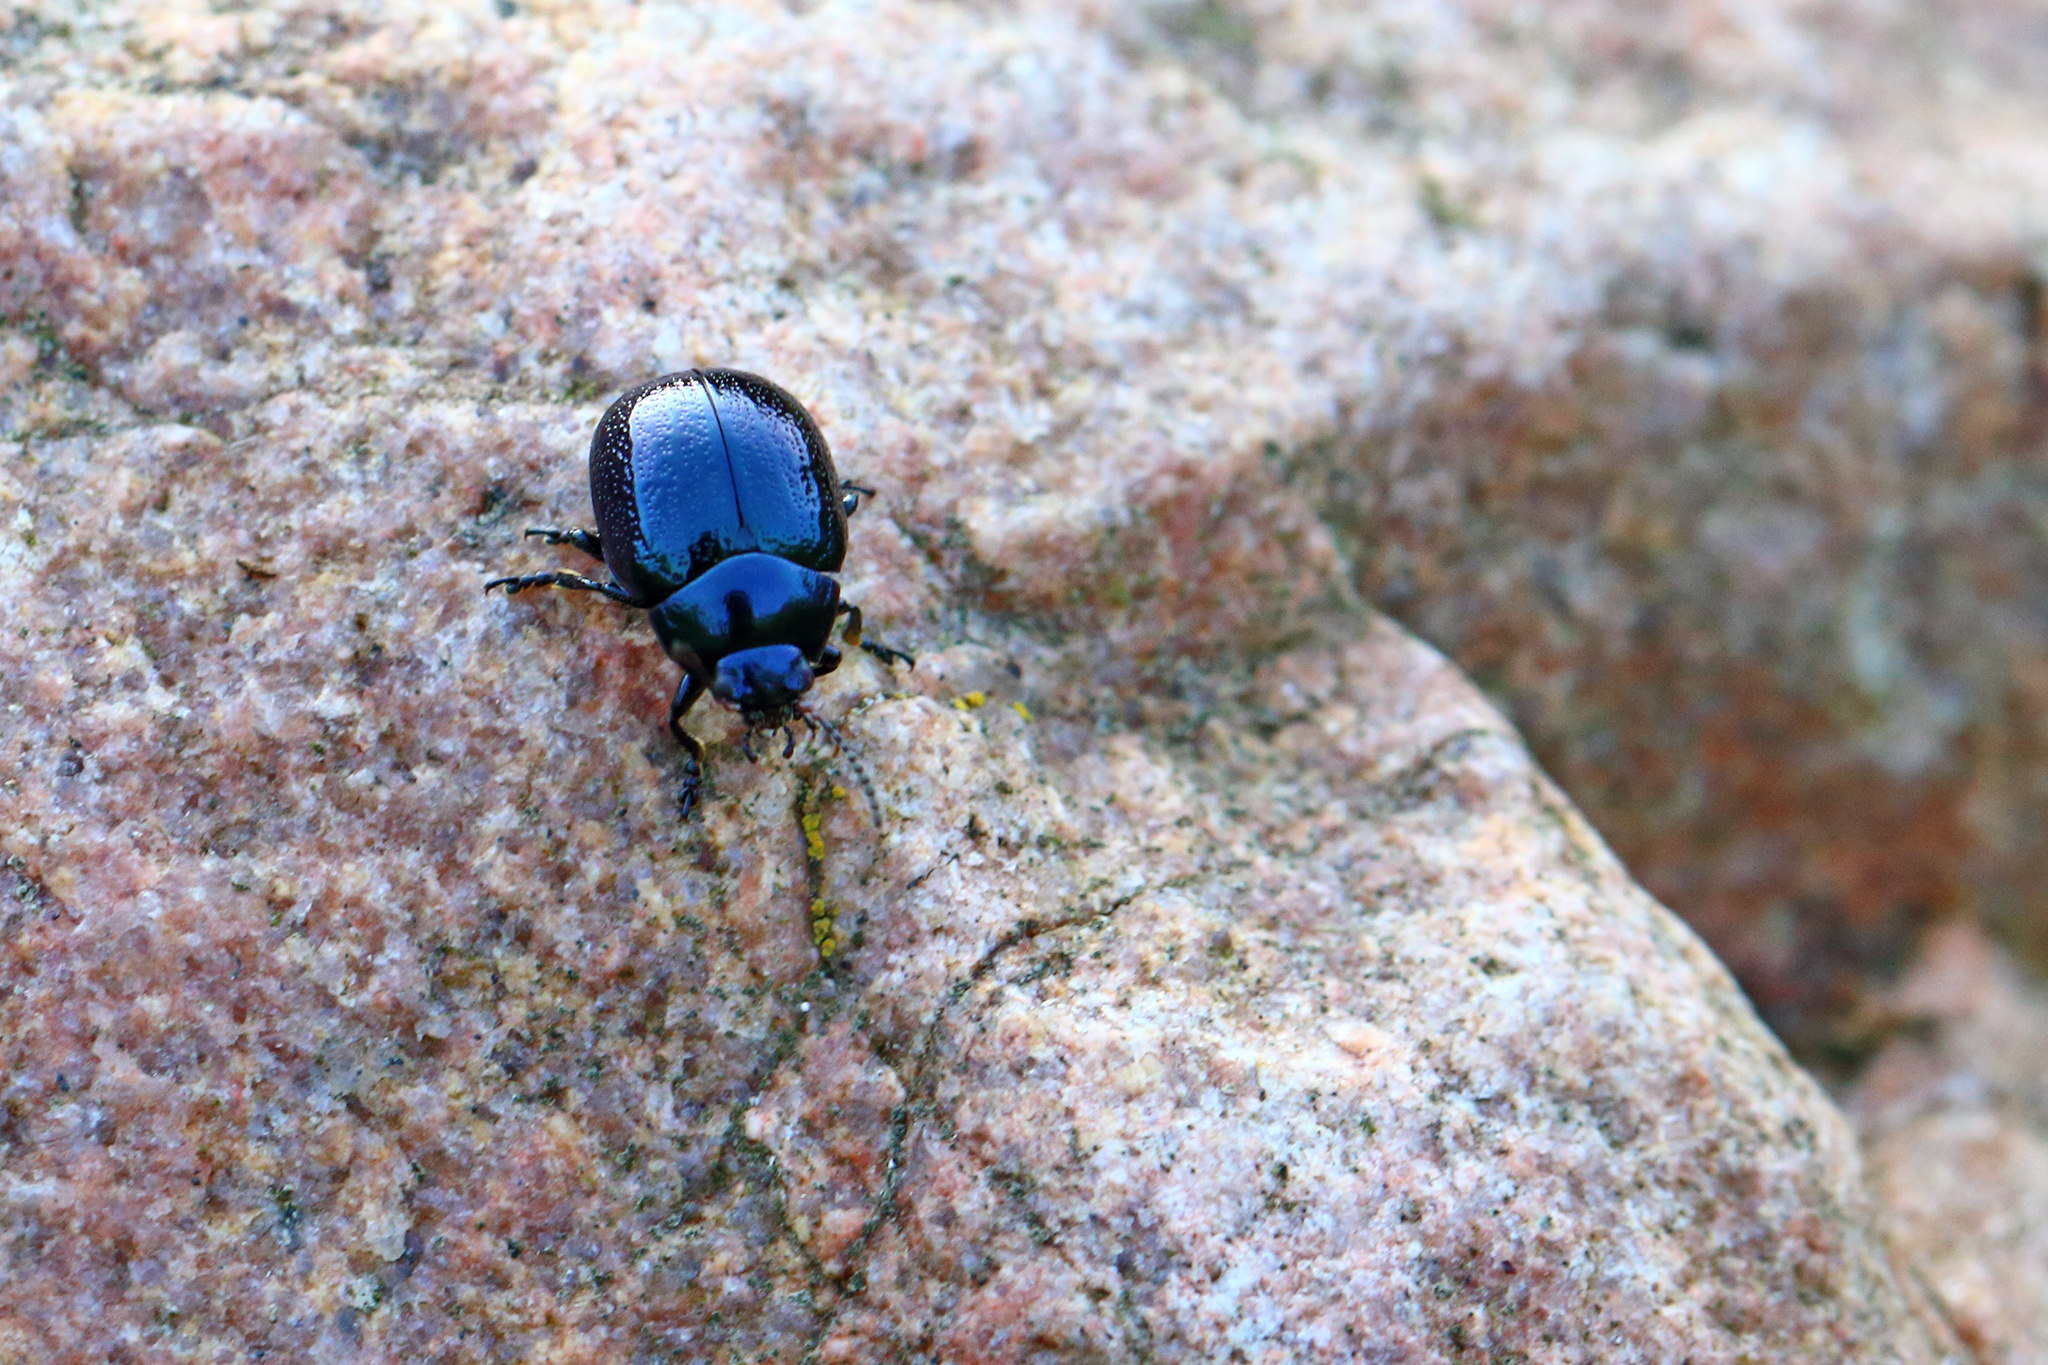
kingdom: Animalia
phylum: Arthropoda
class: Insecta
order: Coleoptera
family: Chrysomelidae
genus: Chrysolina
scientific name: Chrysolina haemoptera
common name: Plantain leaf beetle
